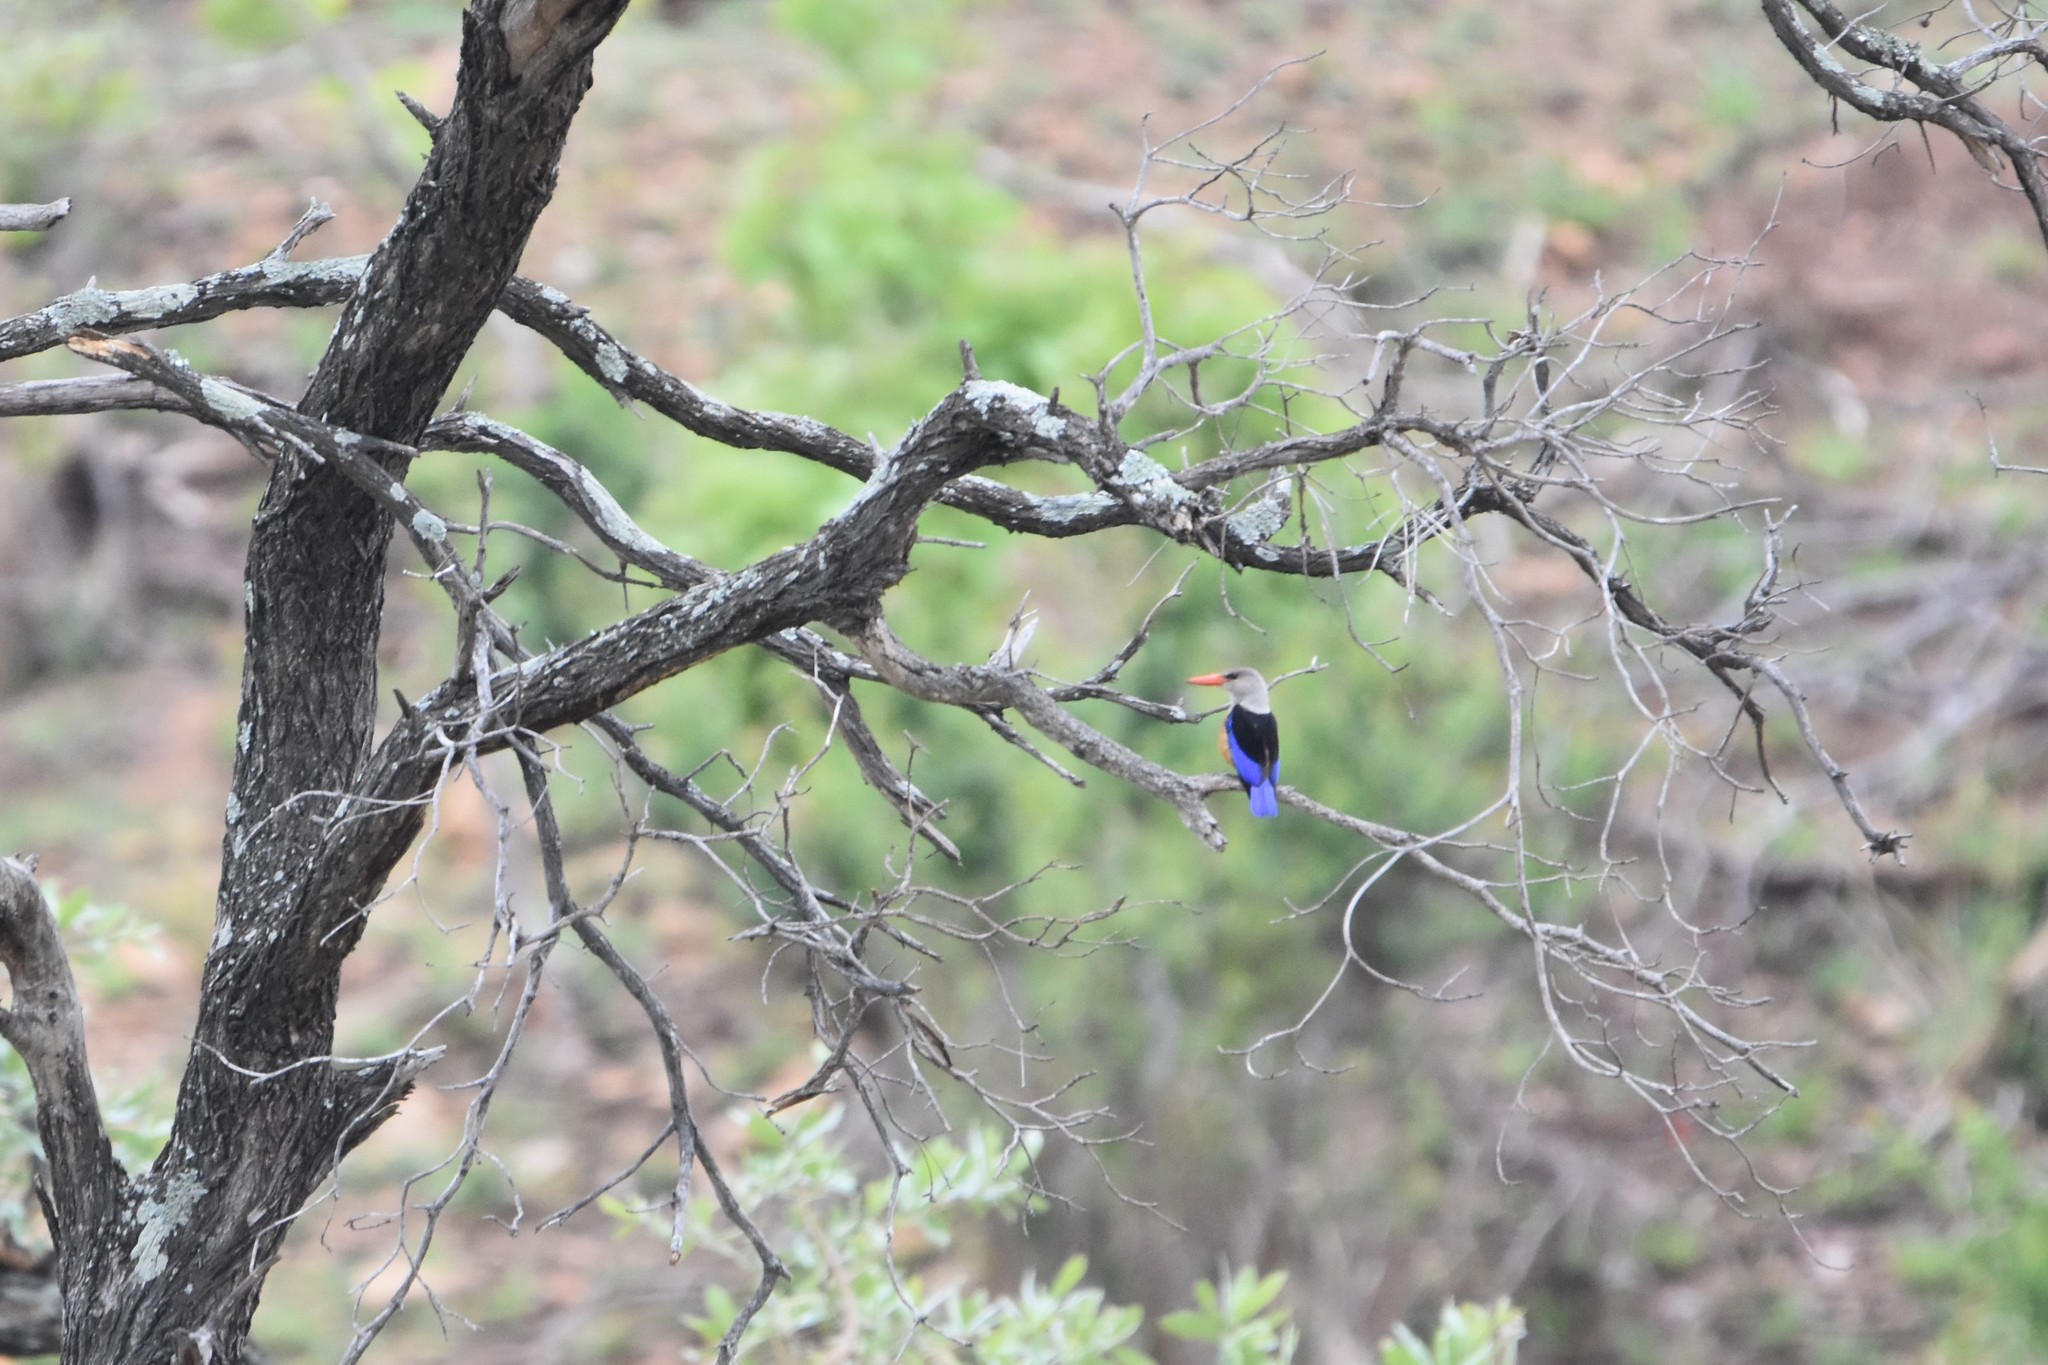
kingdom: Animalia
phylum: Chordata
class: Aves
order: Coraciiformes
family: Alcedinidae
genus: Halcyon
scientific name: Halcyon leucocephala
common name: Grey-headed kingfisher
